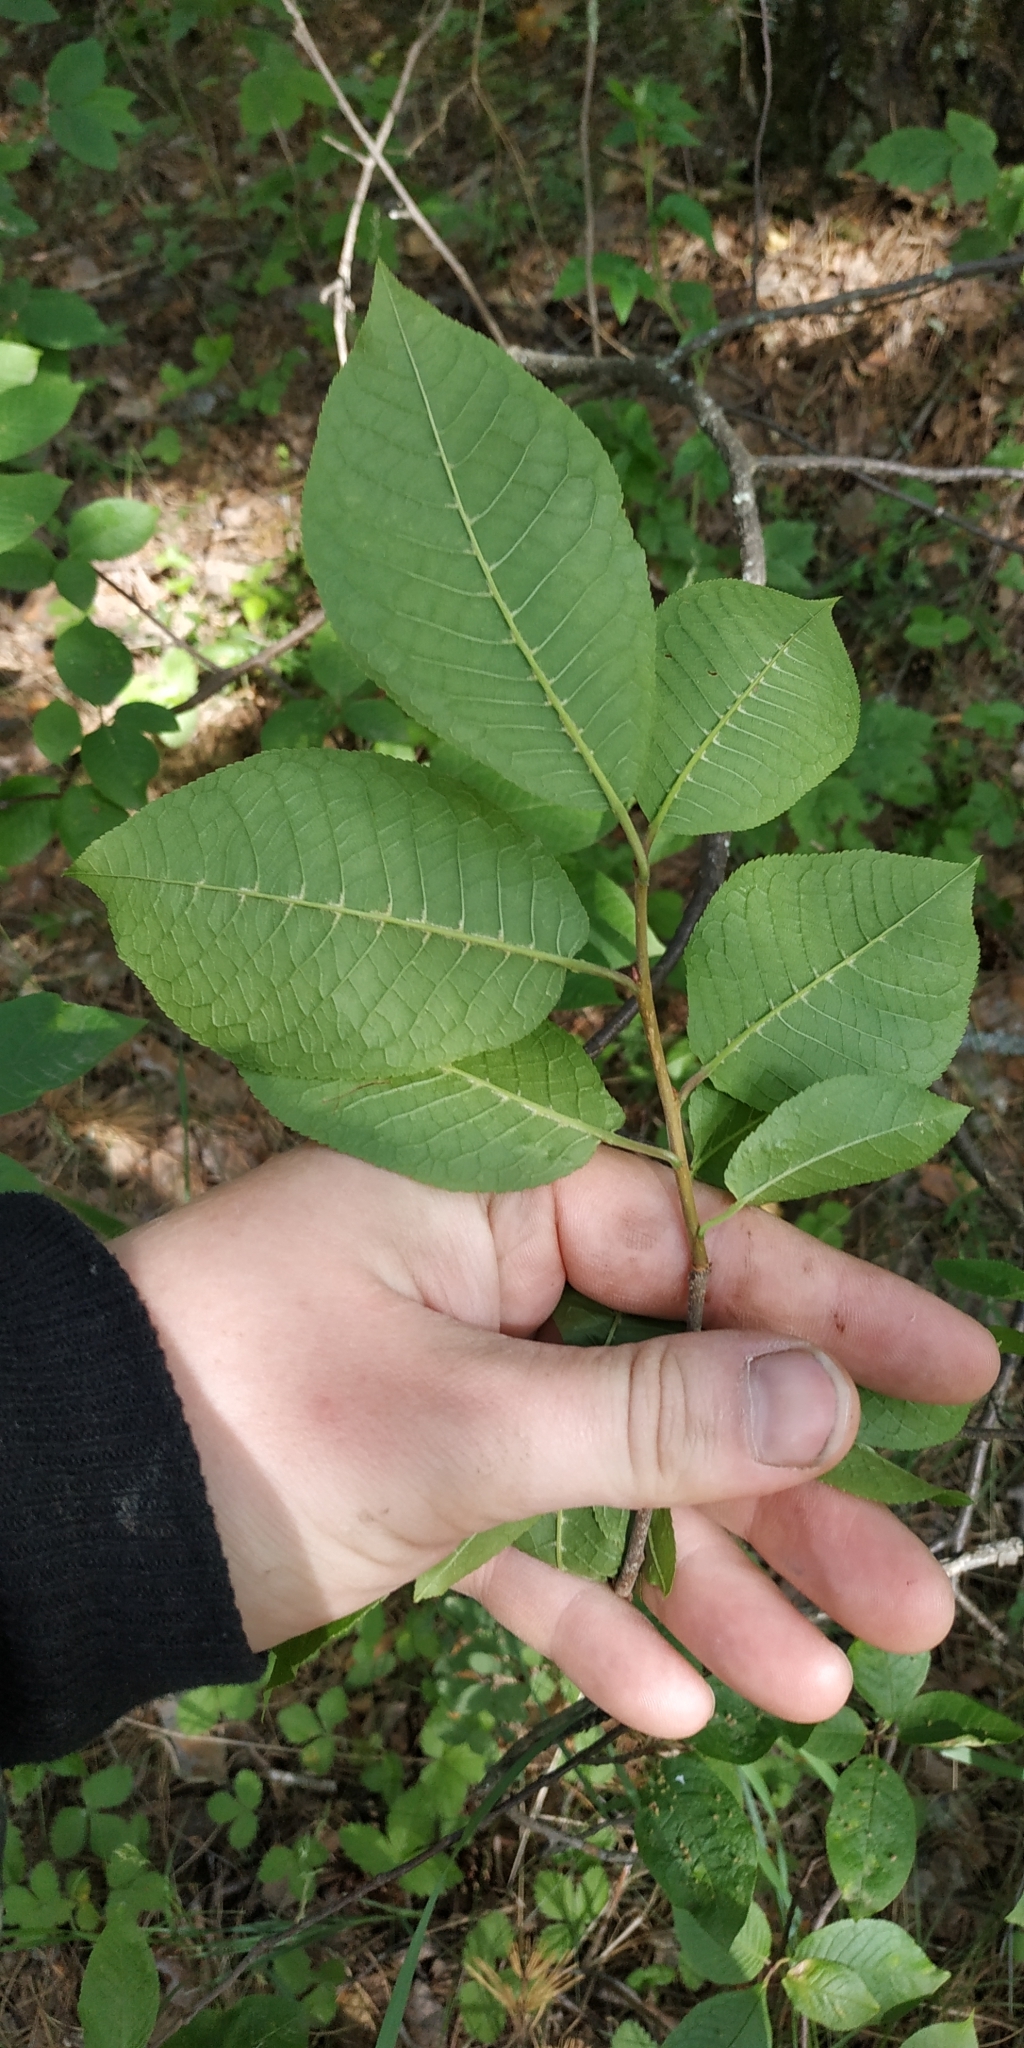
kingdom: Plantae
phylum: Tracheophyta
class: Magnoliopsida
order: Rosales
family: Rosaceae
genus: Prunus
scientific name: Prunus padus
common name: Bird cherry
